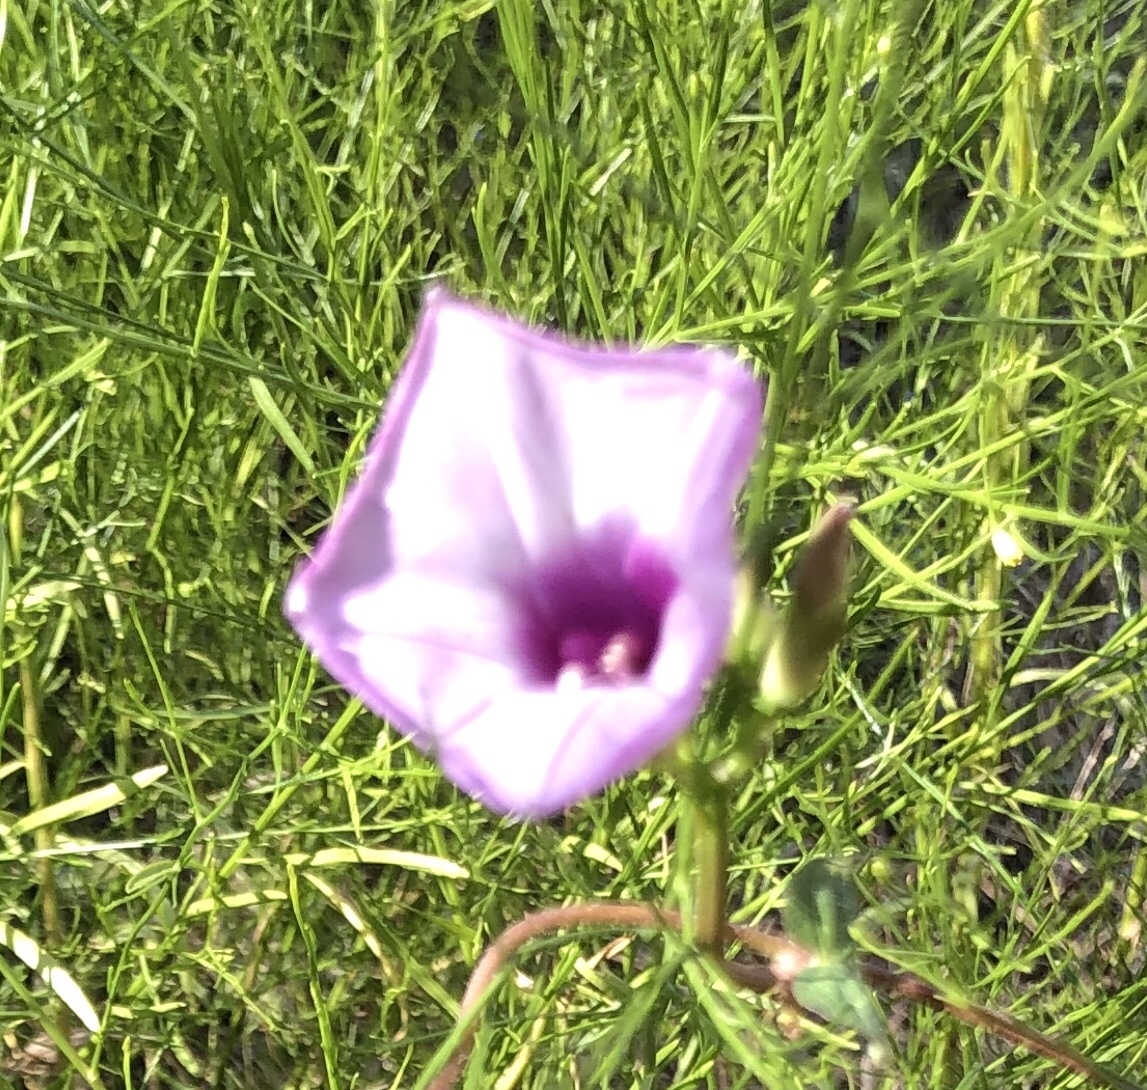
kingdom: Plantae
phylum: Tracheophyta
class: Magnoliopsida
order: Solanales
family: Convolvulaceae
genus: Ipomoea
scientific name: Ipomoea cordatotriloba
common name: Cotton morning glory
